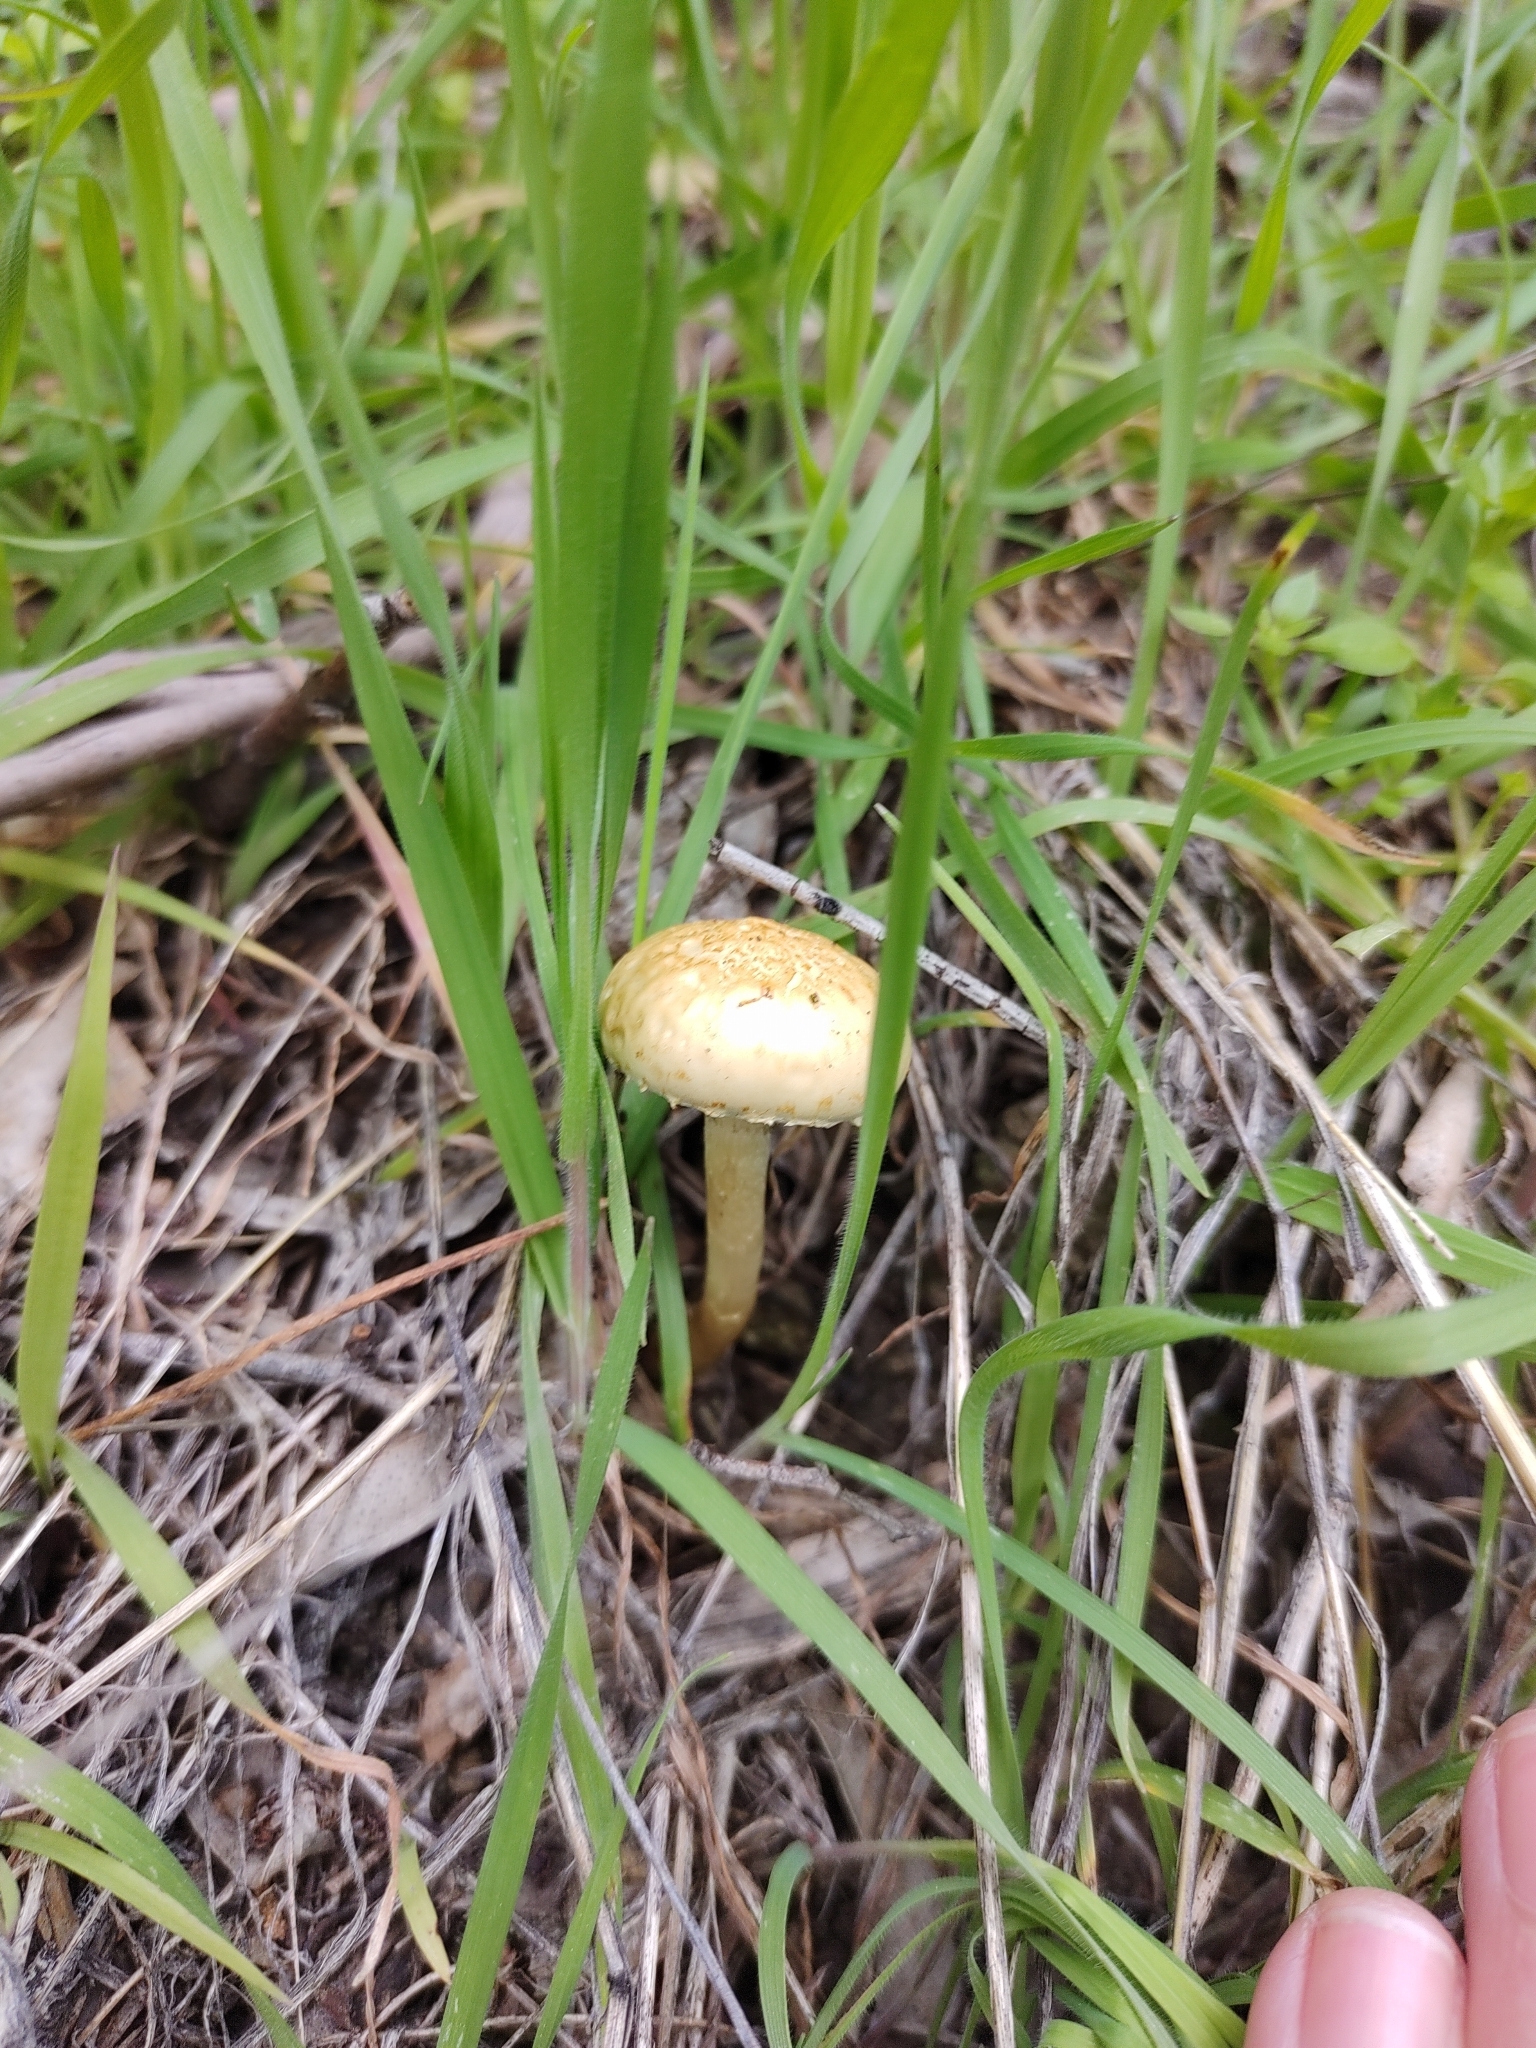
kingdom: Fungi
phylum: Basidiomycota
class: Agaricomycetes
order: Agaricales
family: Strophariaceae
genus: Leratiomyces
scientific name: Leratiomyces percevalii
